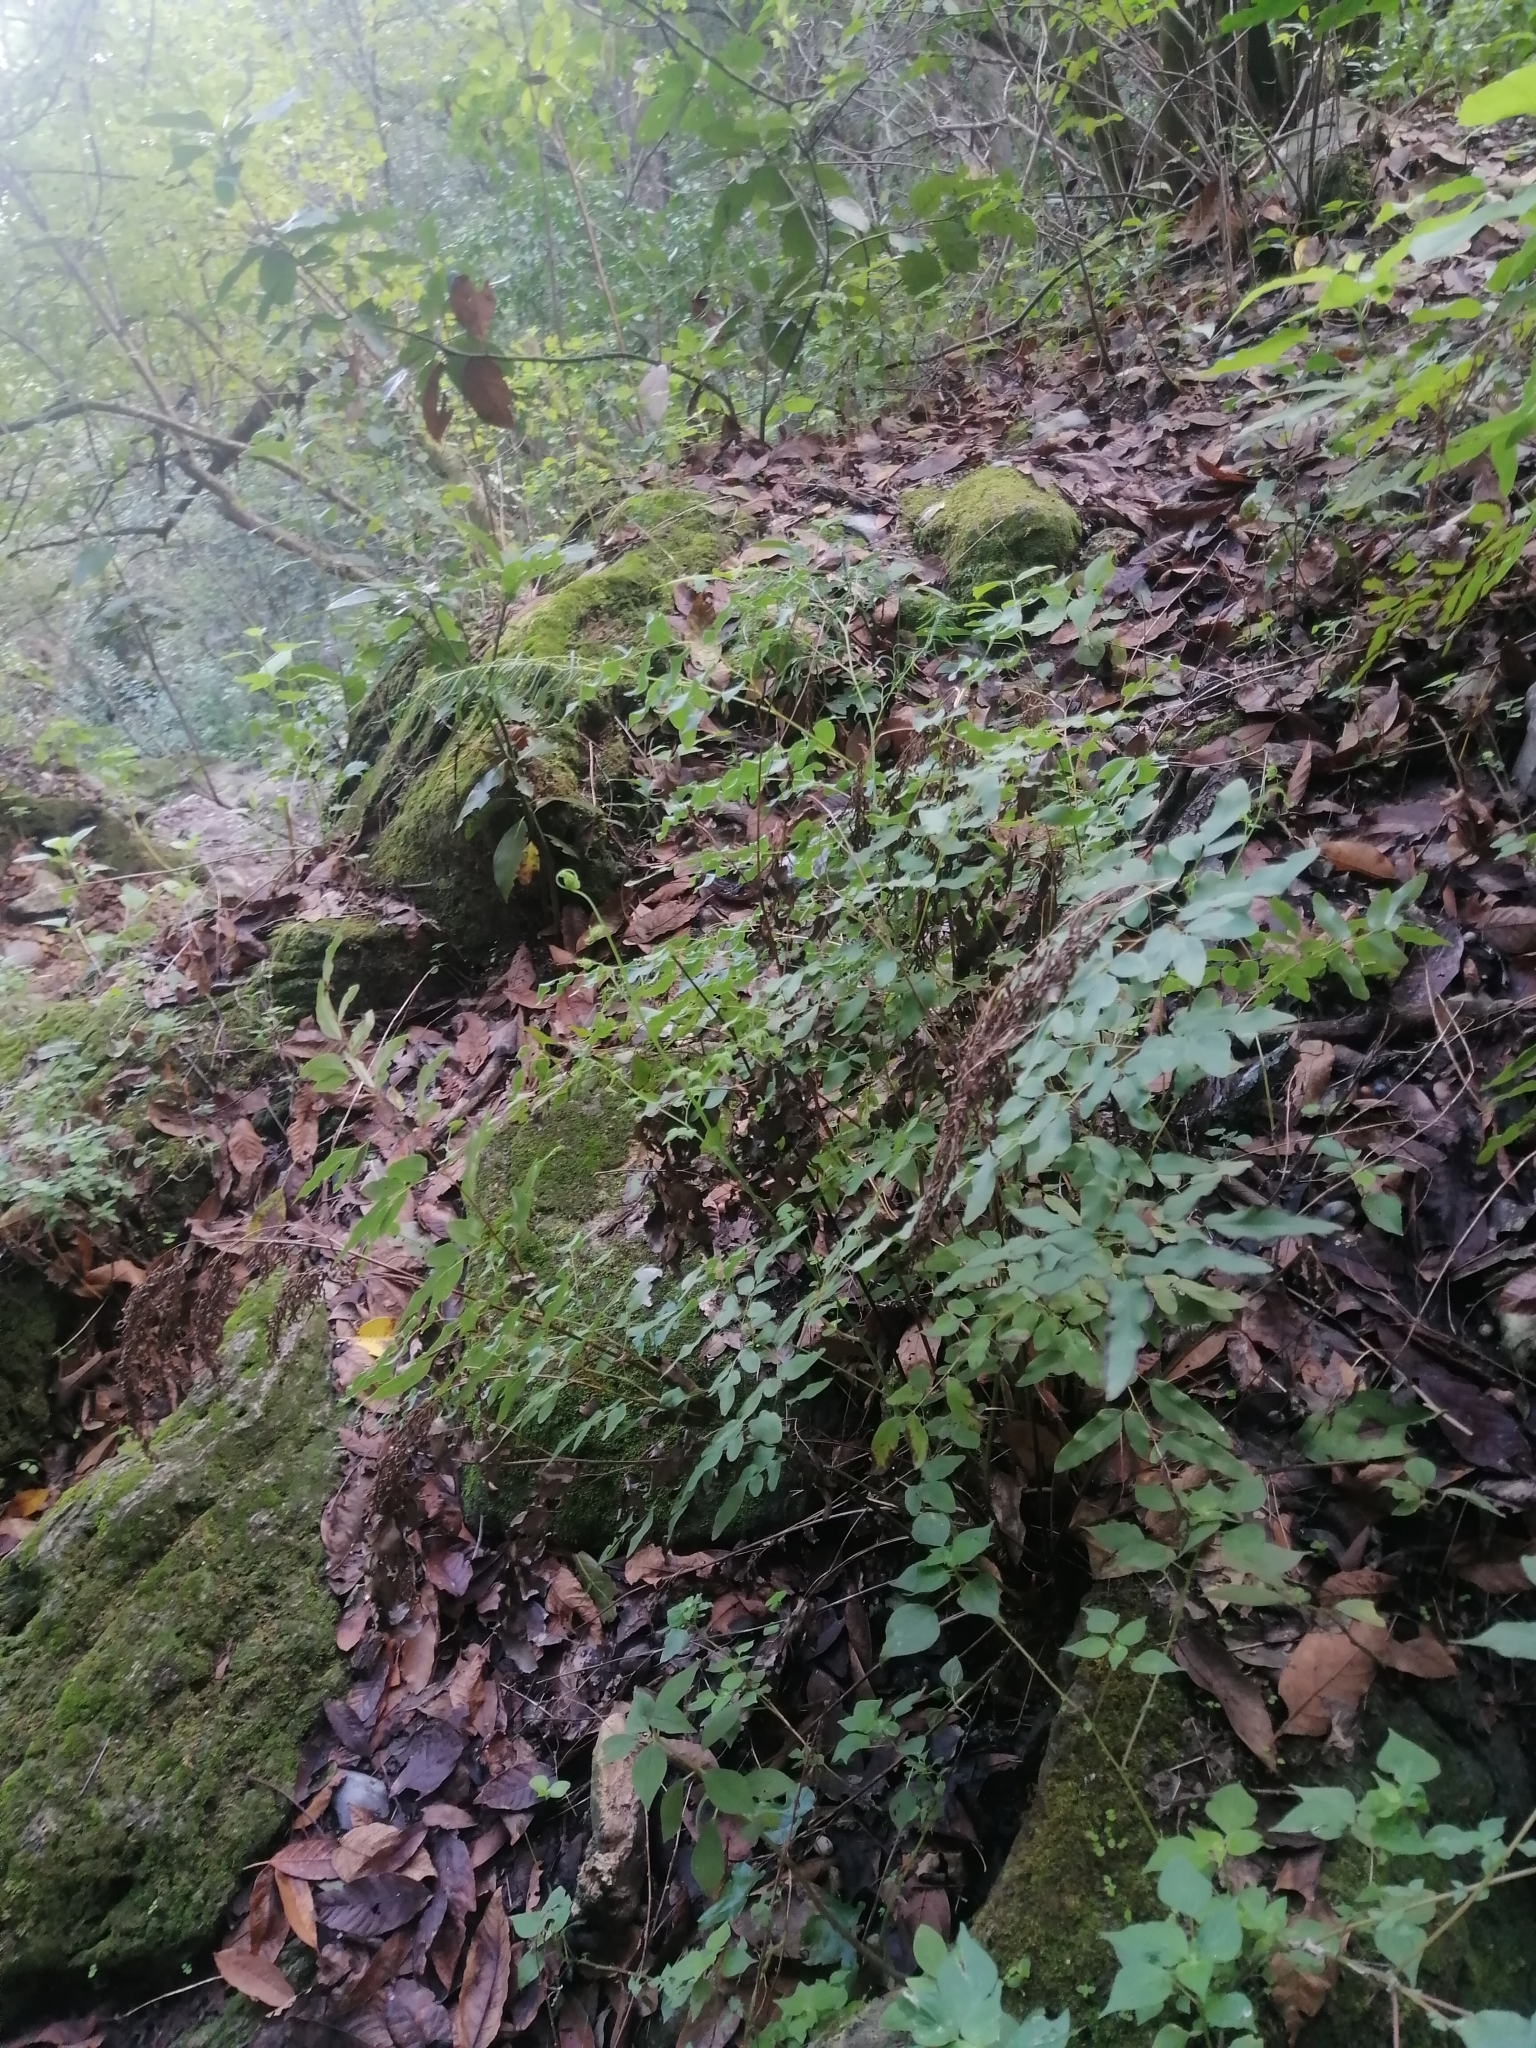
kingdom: Plantae
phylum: Tracheophyta
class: Polypodiopsida
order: Polypodiales
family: Pteridaceae
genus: Llavea
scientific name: Llavea cordifolia
